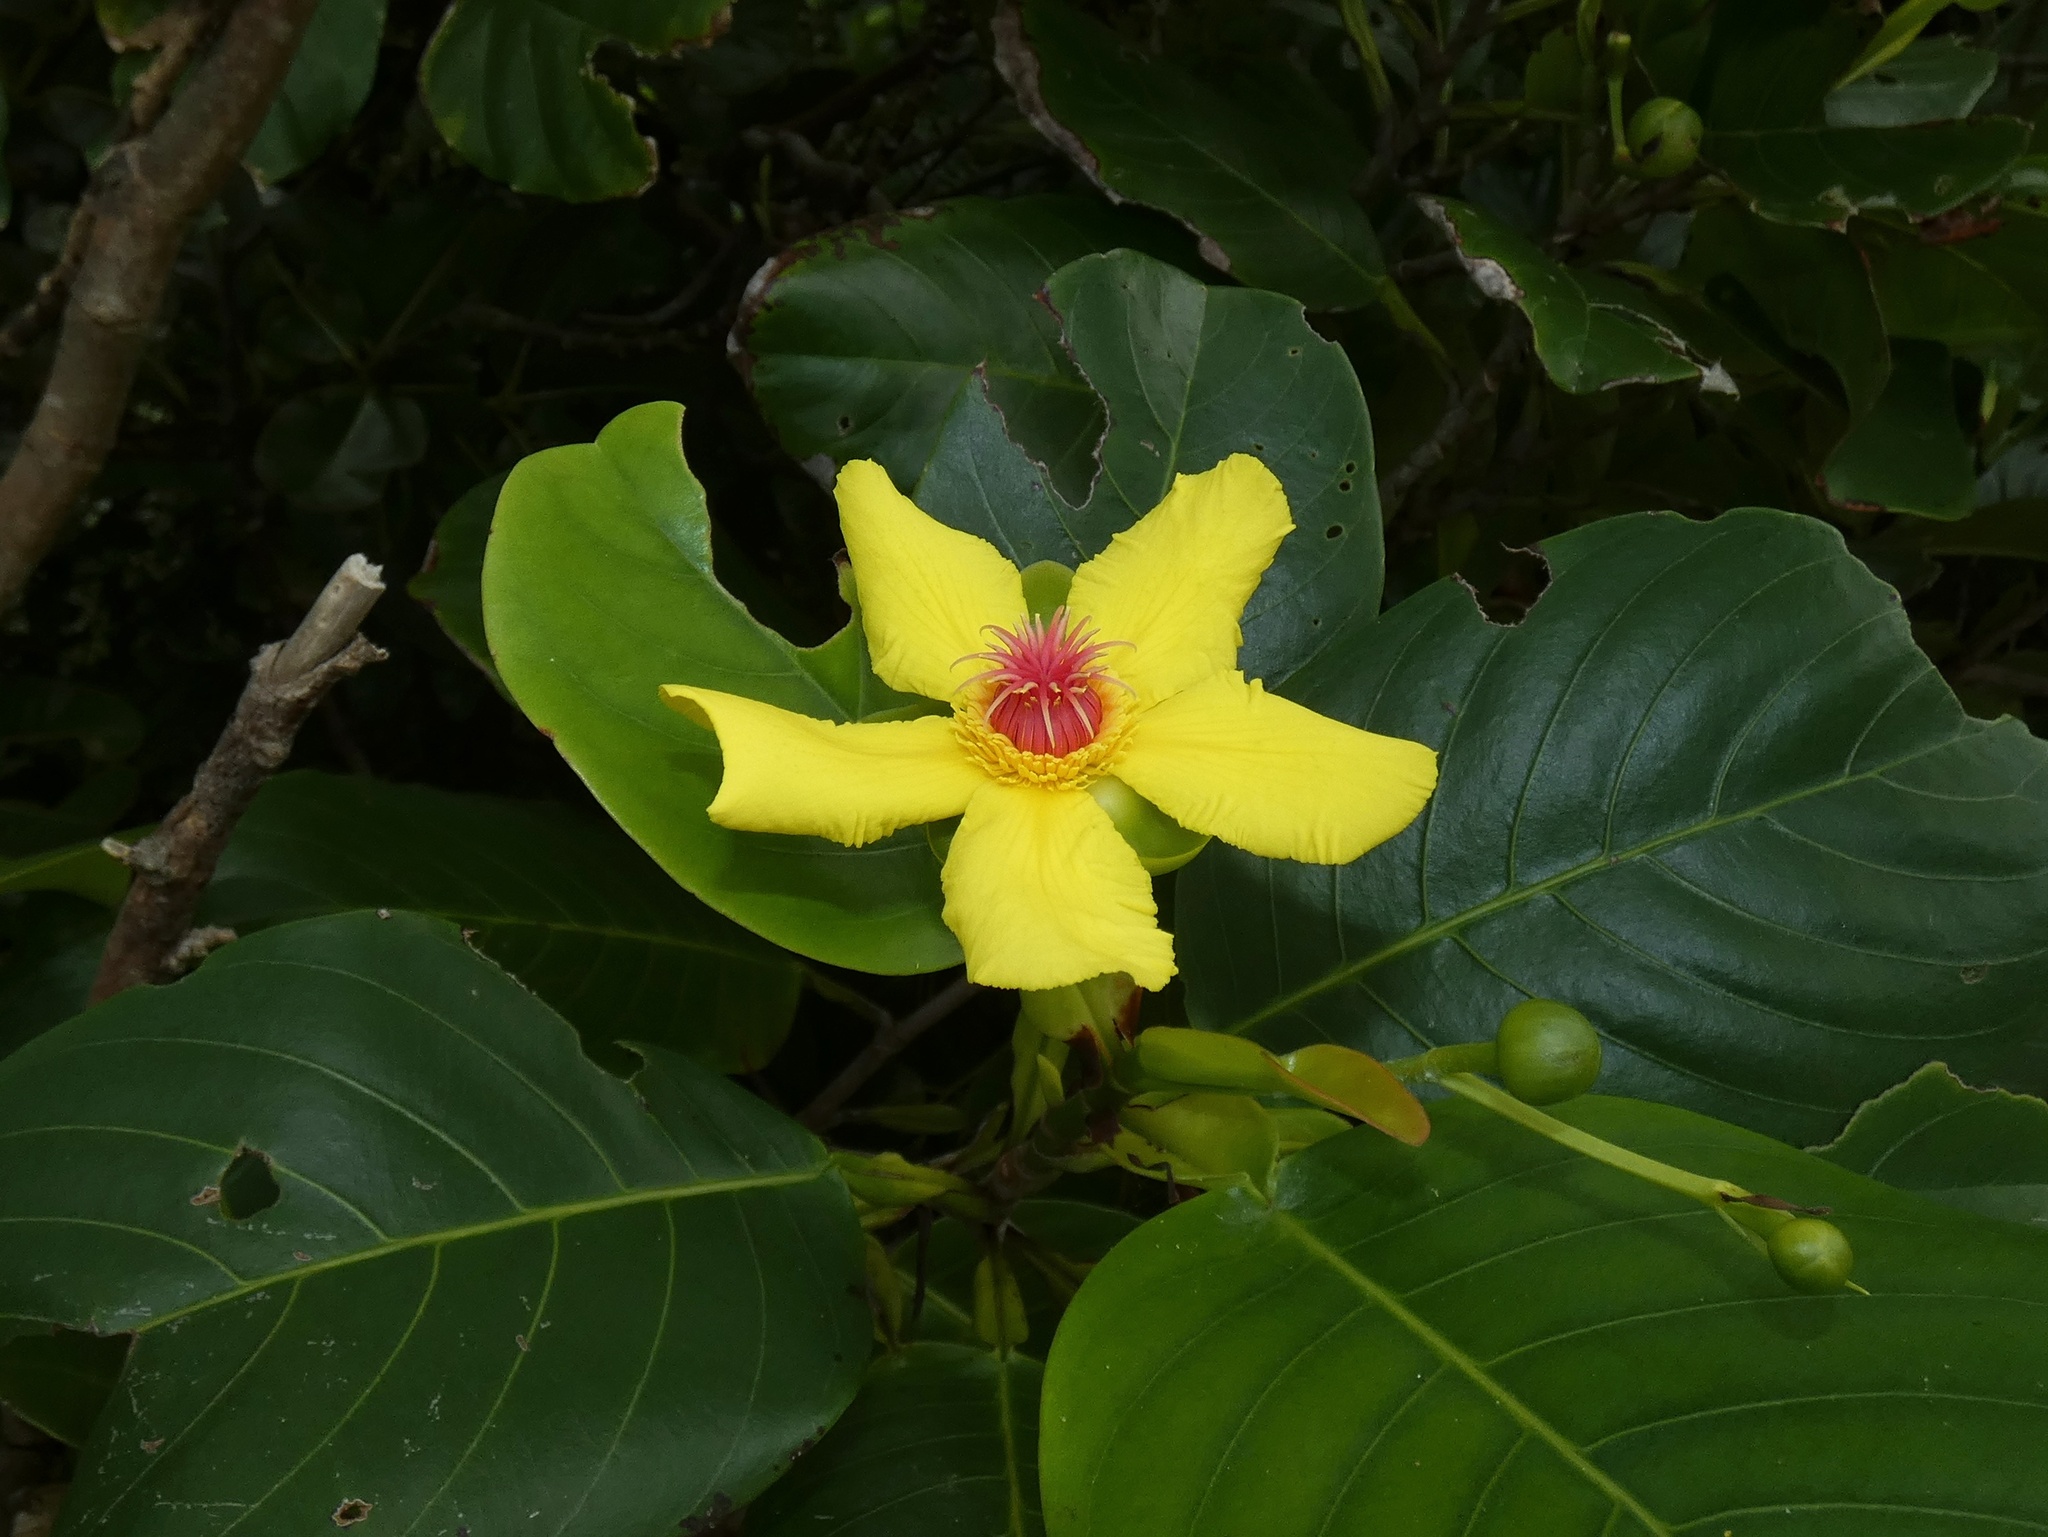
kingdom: Plantae
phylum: Tracheophyta
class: Magnoliopsida
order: Dilleniales
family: Dilleniaceae
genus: Dillenia
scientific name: Dillenia alata
